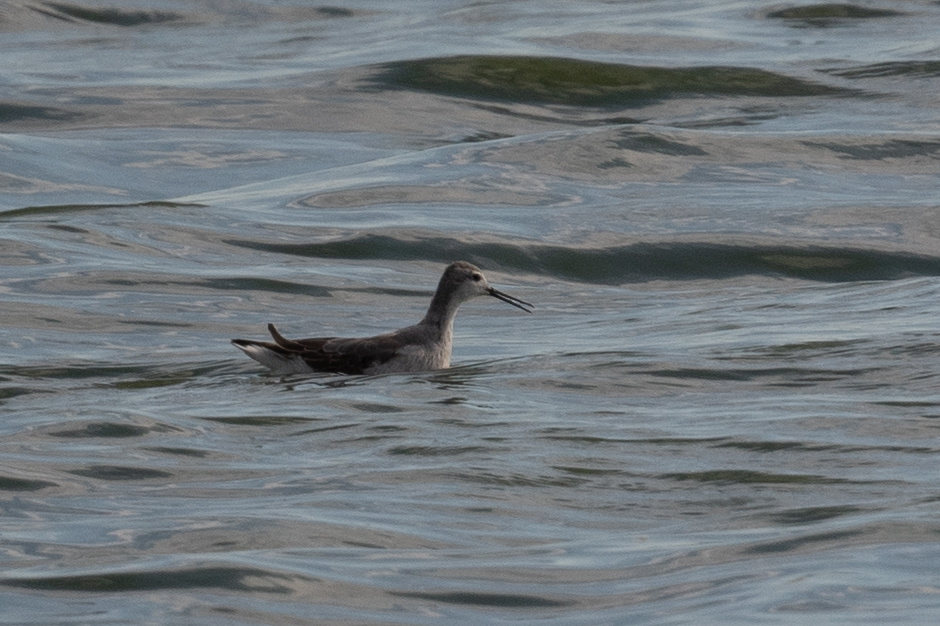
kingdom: Animalia
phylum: Chordata
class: Aves
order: Charadriiformes
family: Scolopacidae
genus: Phalaropus
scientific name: Phalaropus tricolor
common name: Wilson's phalarope
